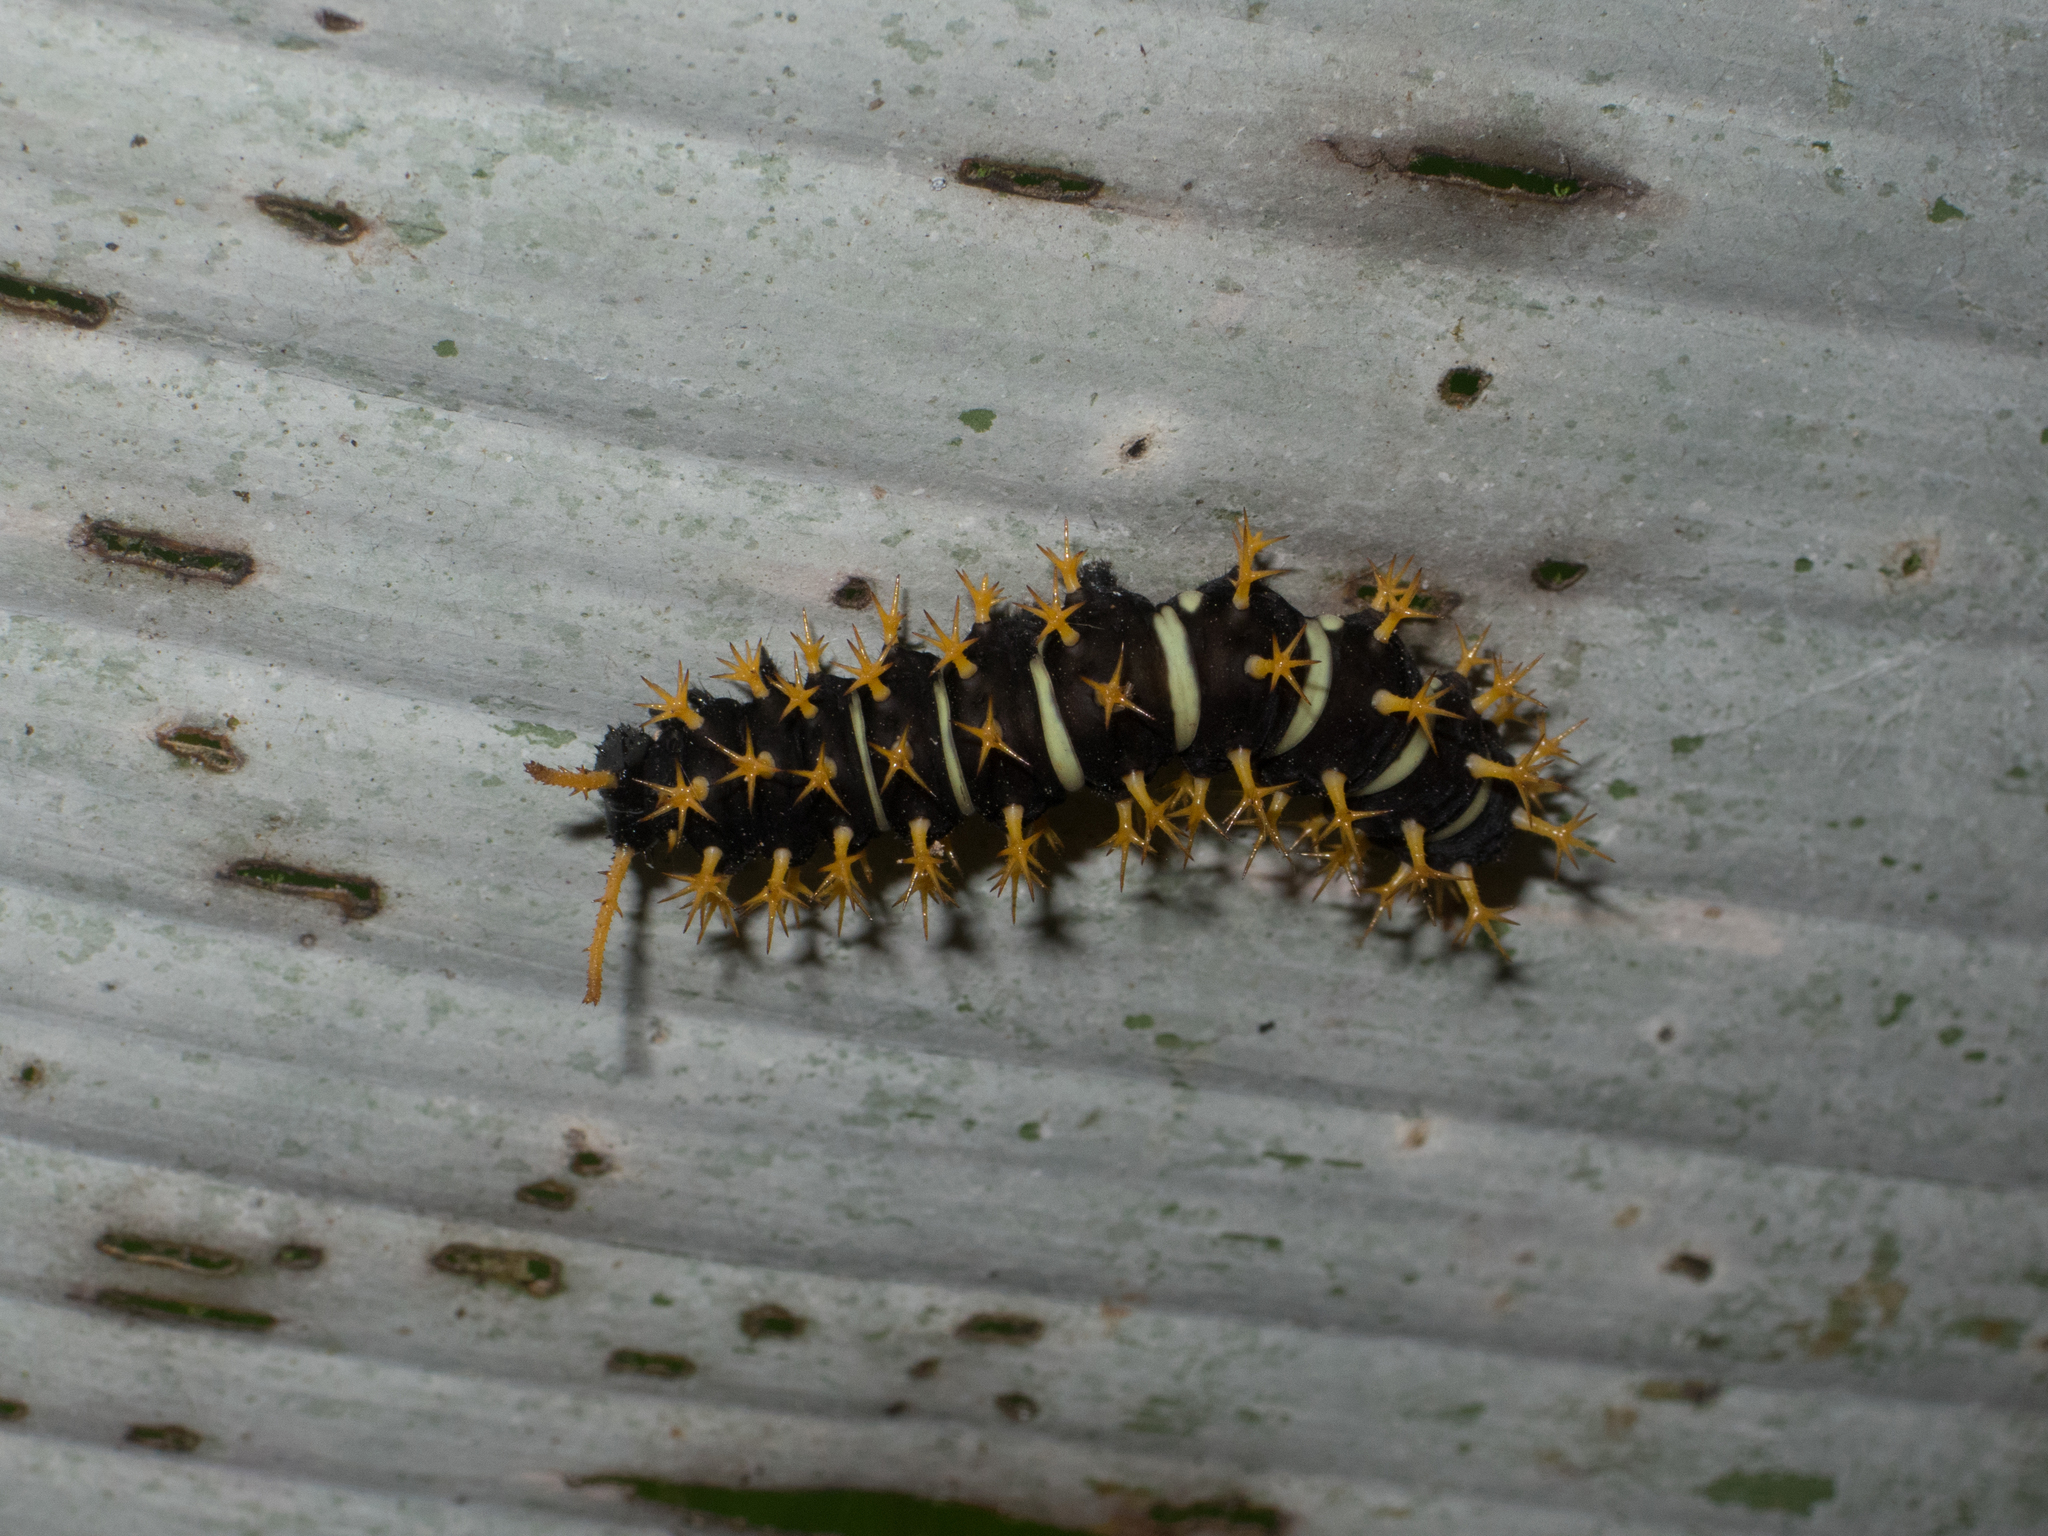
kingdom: Animalia
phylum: Arthropoda
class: Insecta
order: Lepidoptera
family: Nymphalidae
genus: Colobura
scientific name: Colobura annulata
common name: New beauty
